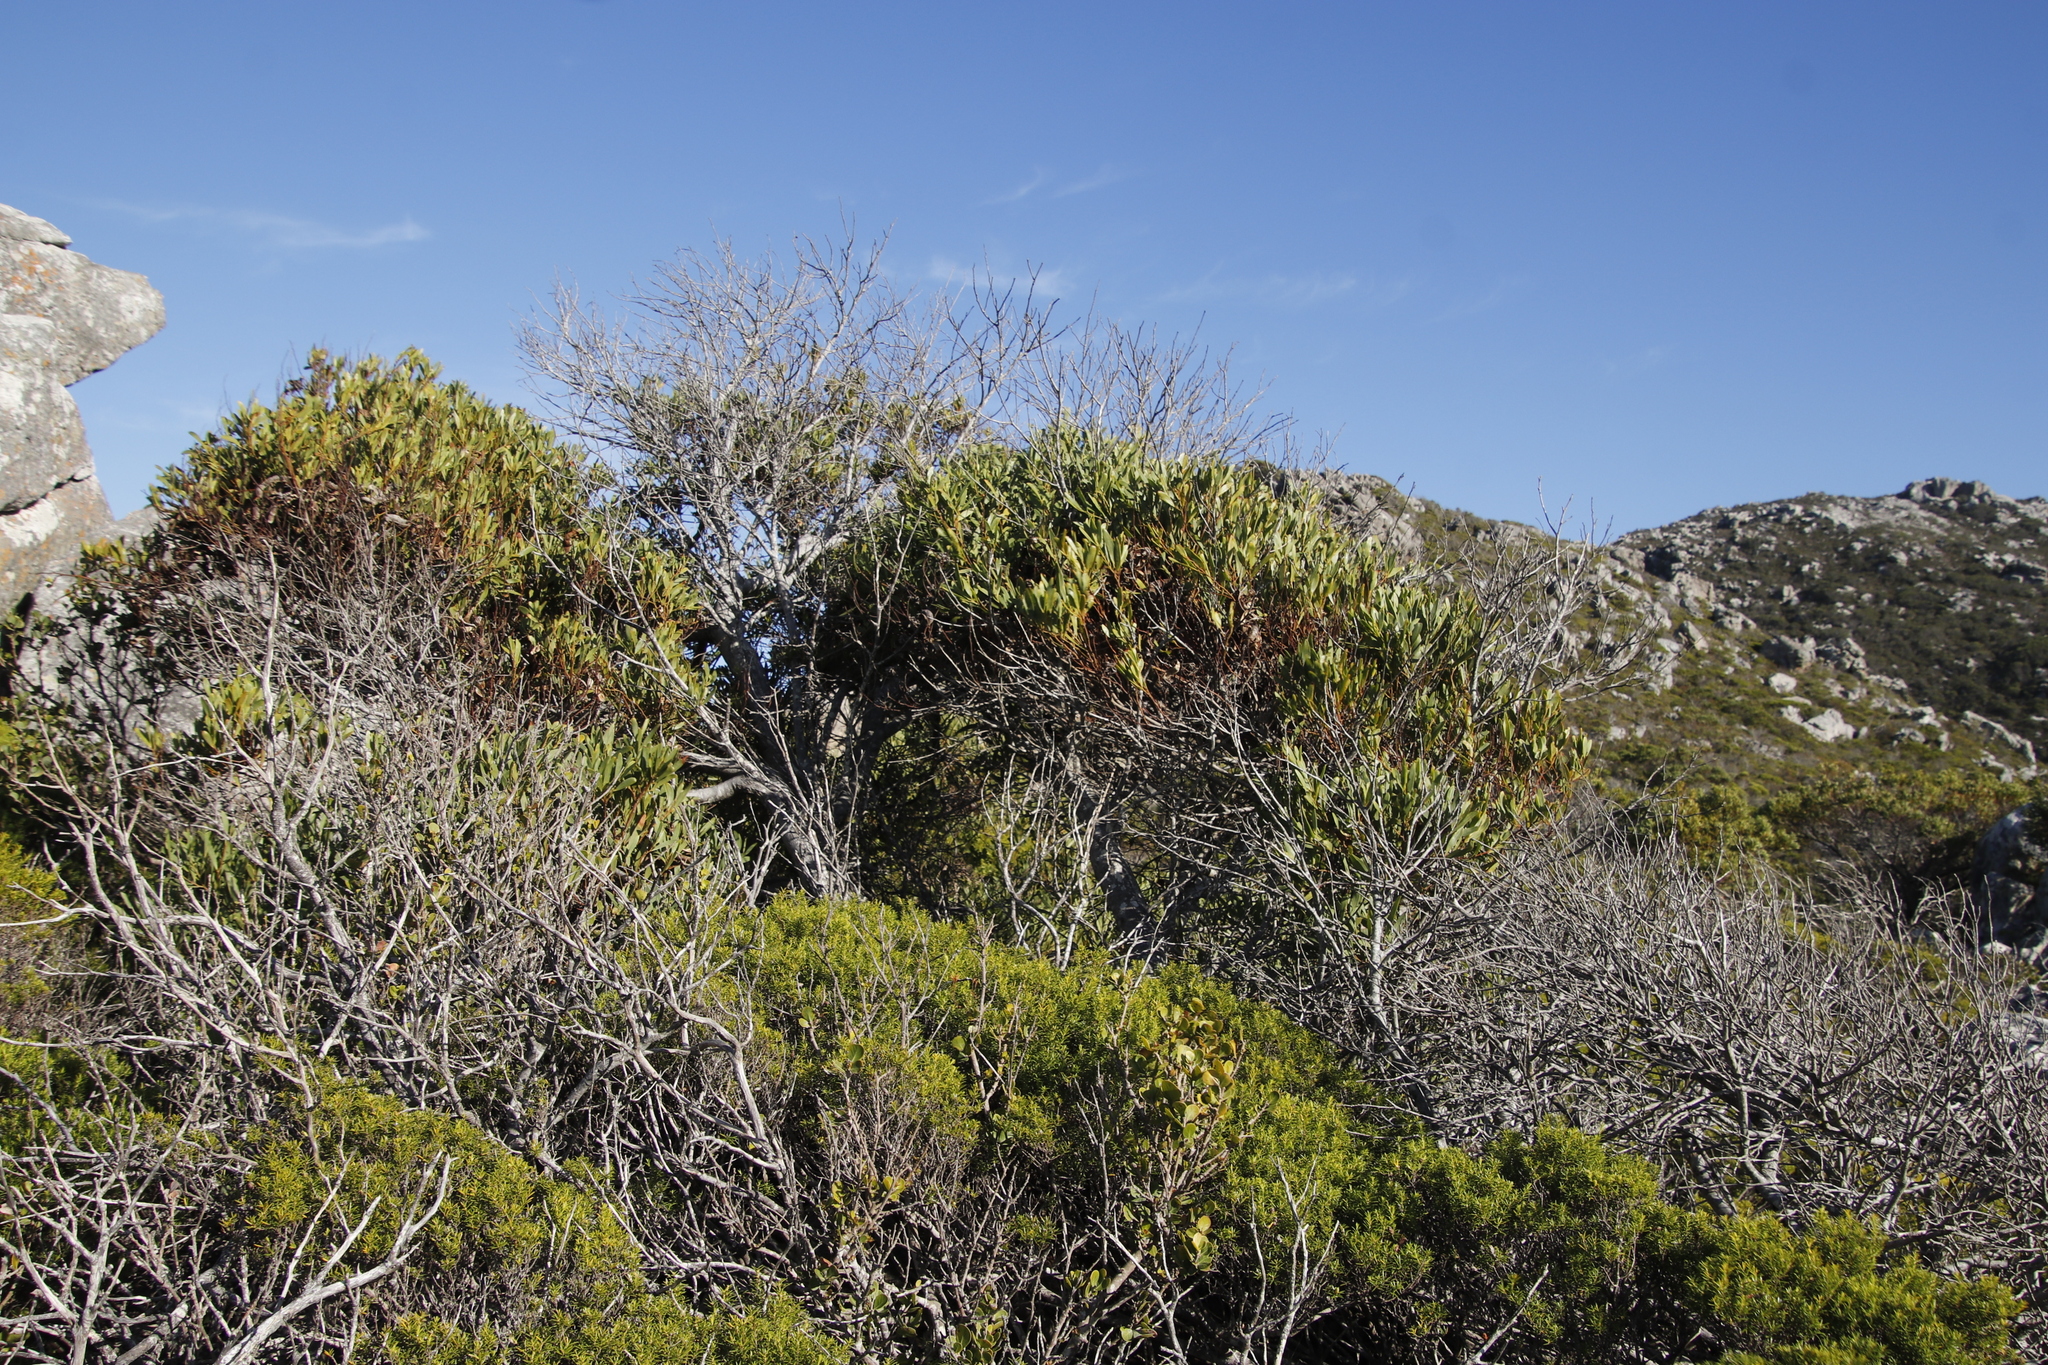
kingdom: Plantae
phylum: Tracheophyta
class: Magnoliopsida
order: Fabales
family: Fabaceae
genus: Acacia
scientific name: Acacia cyclops
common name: Coastal wattle
